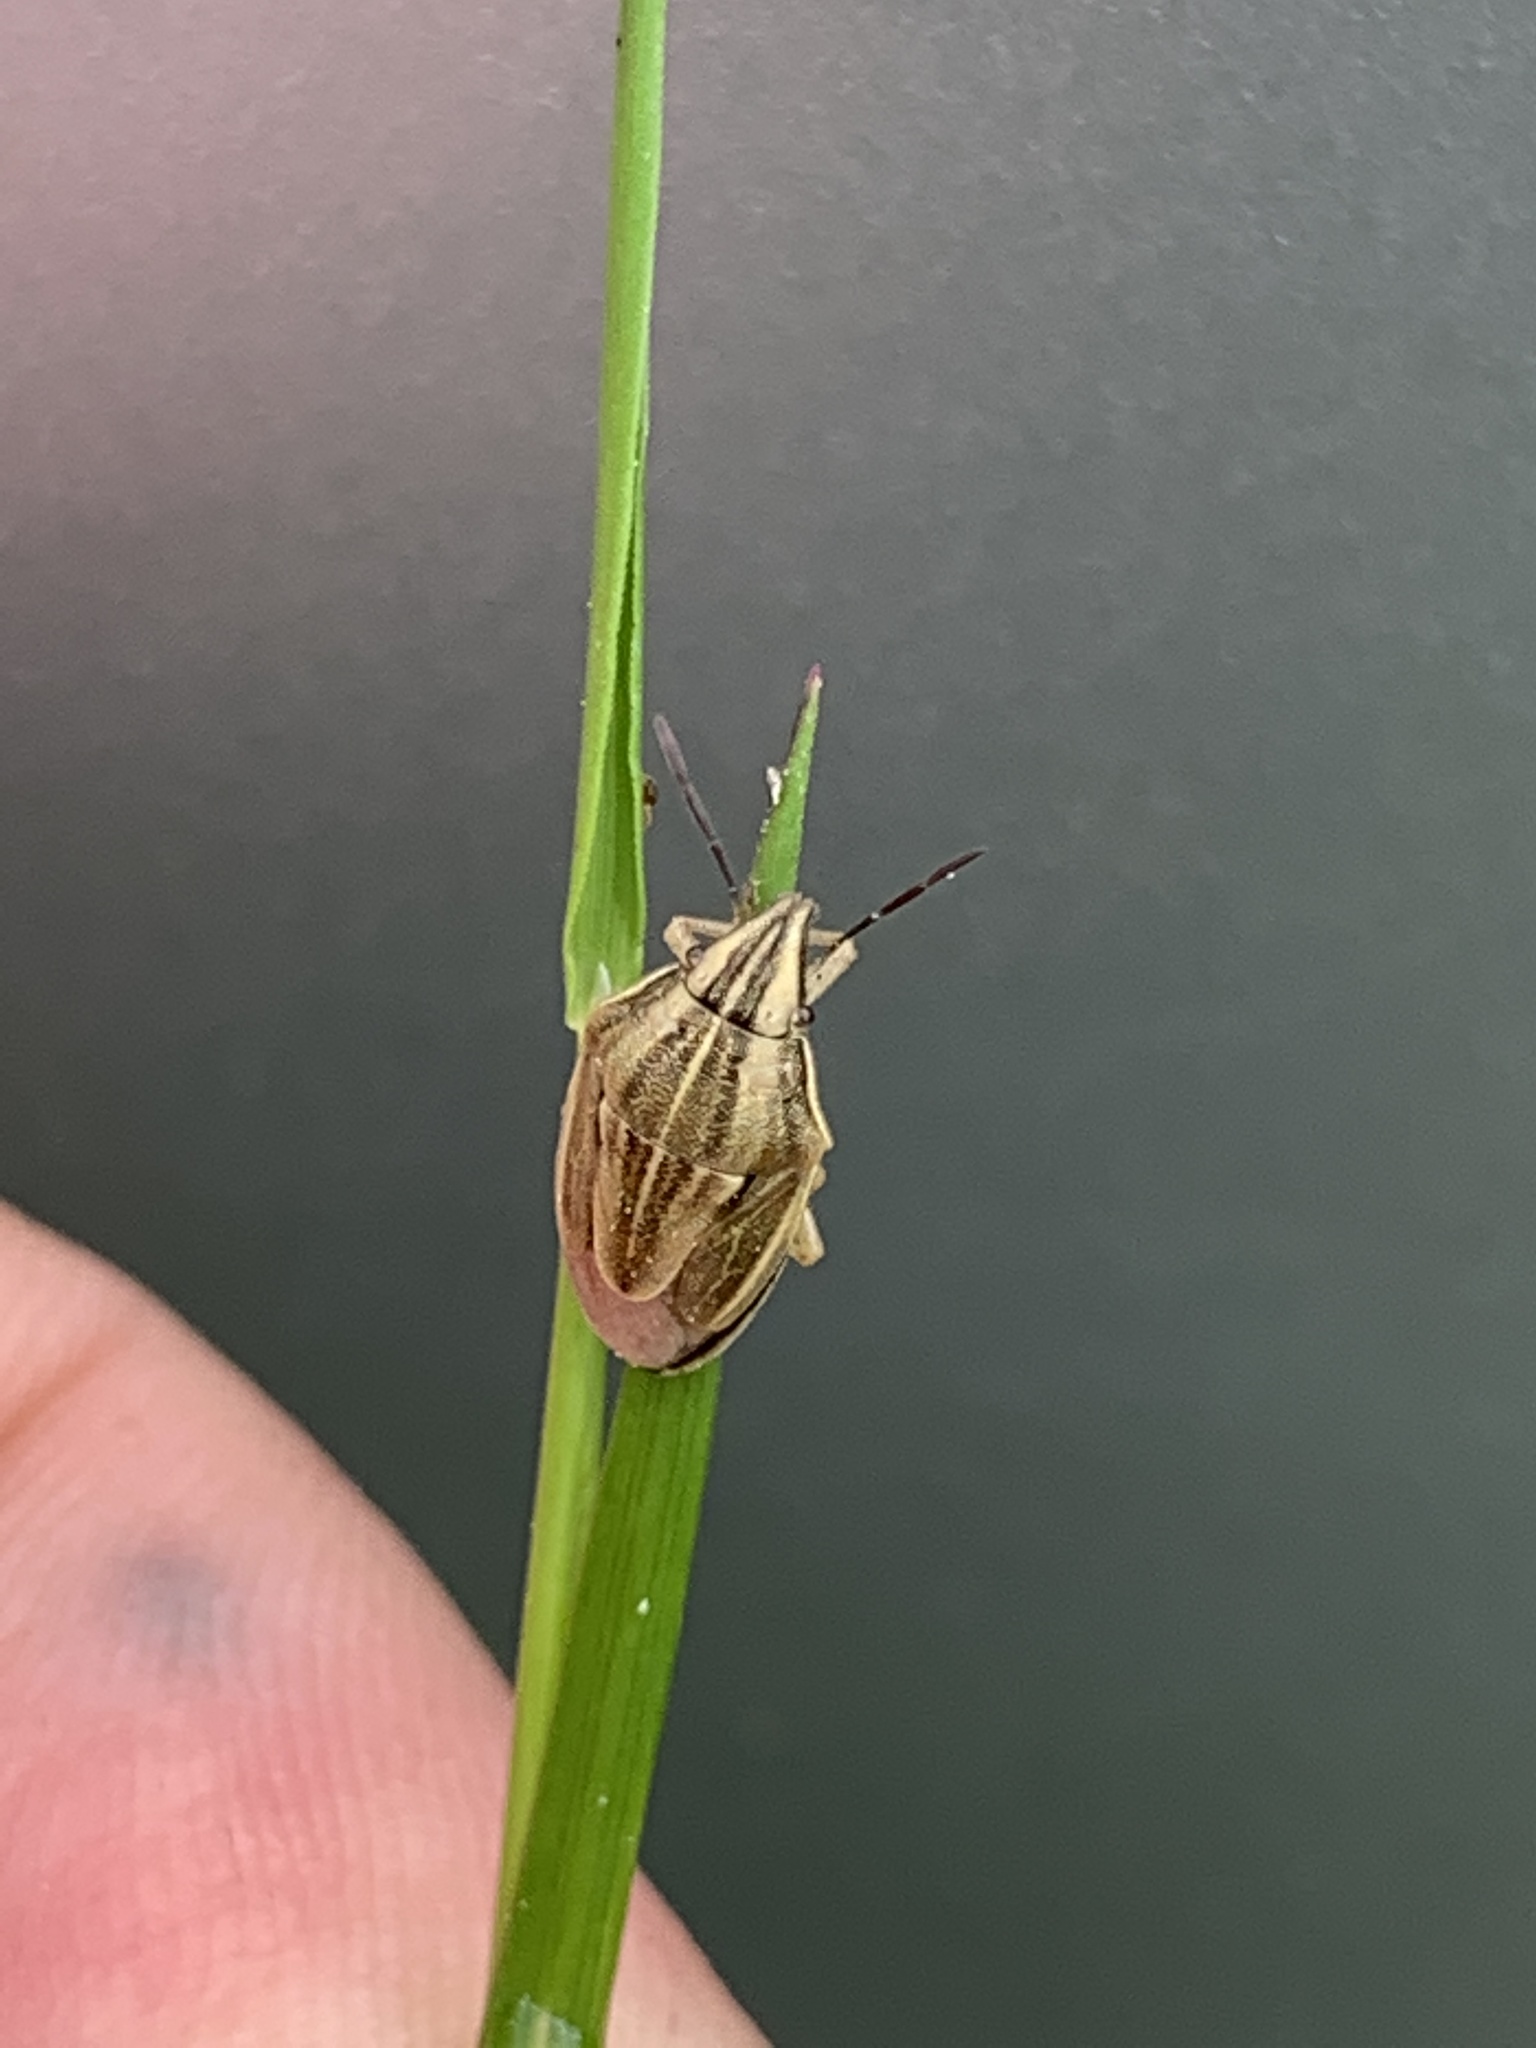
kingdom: Animalia
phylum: Arthropoda
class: Insecta
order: Hemiptera
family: Pentatomidae
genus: Aelia
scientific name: Aelia acuminata
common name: Bishop's mitre
